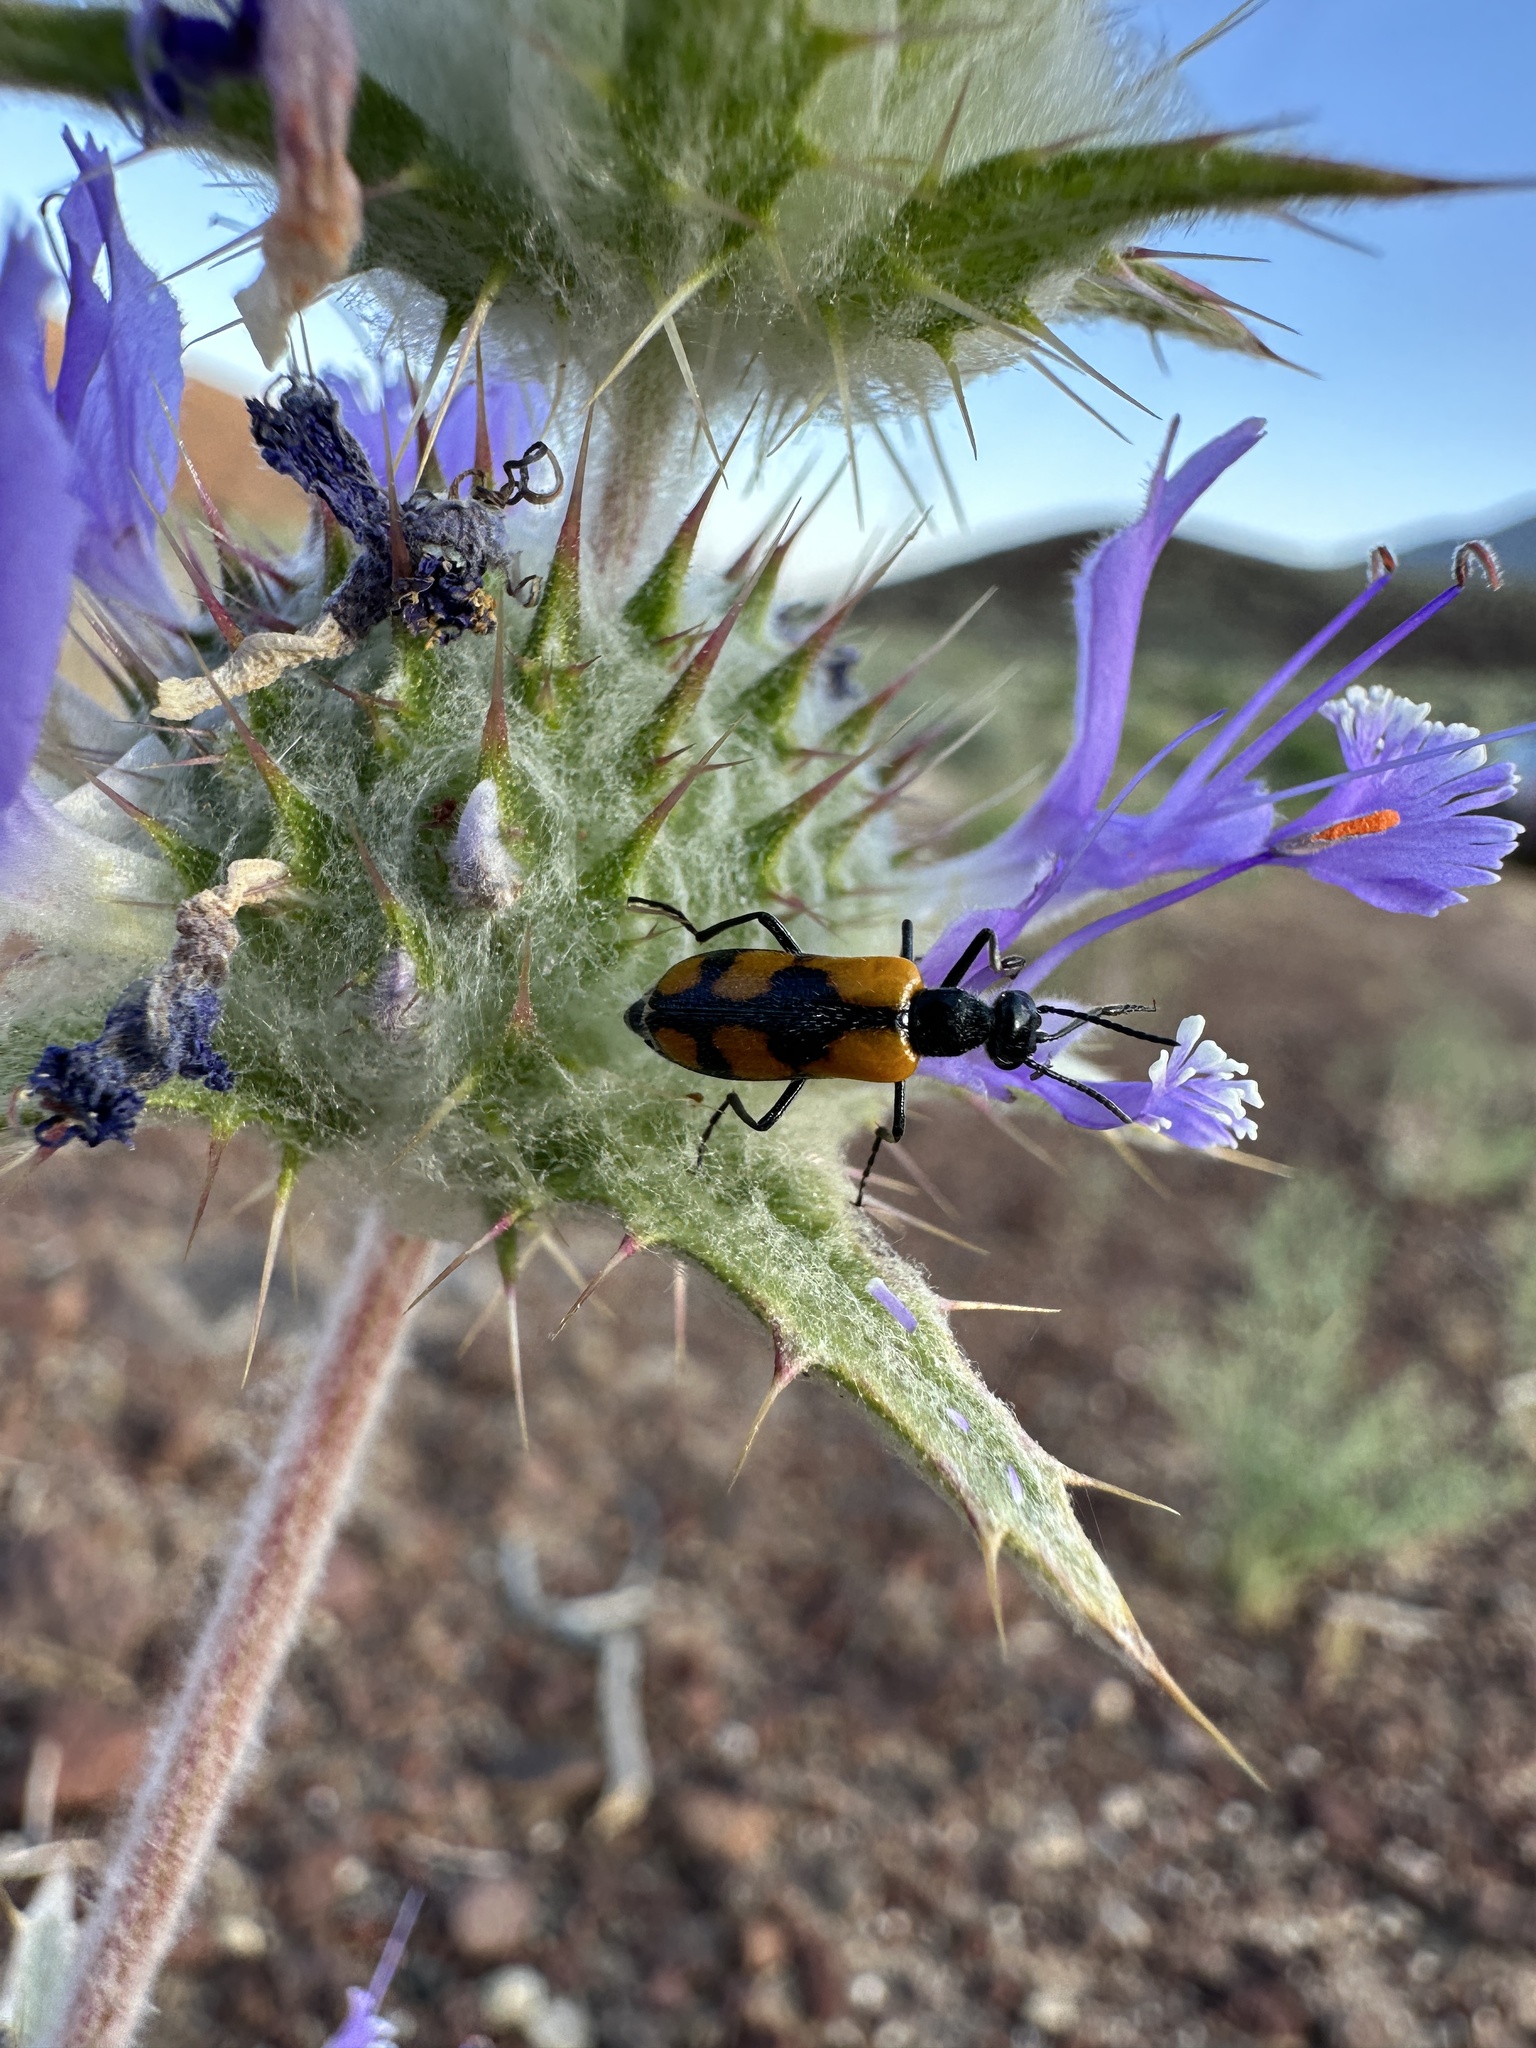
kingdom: Animalia
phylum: Arthropoda
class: Insecta
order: Coleoptera
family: Meloidae
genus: Eupompha
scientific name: Eupompha elegans
